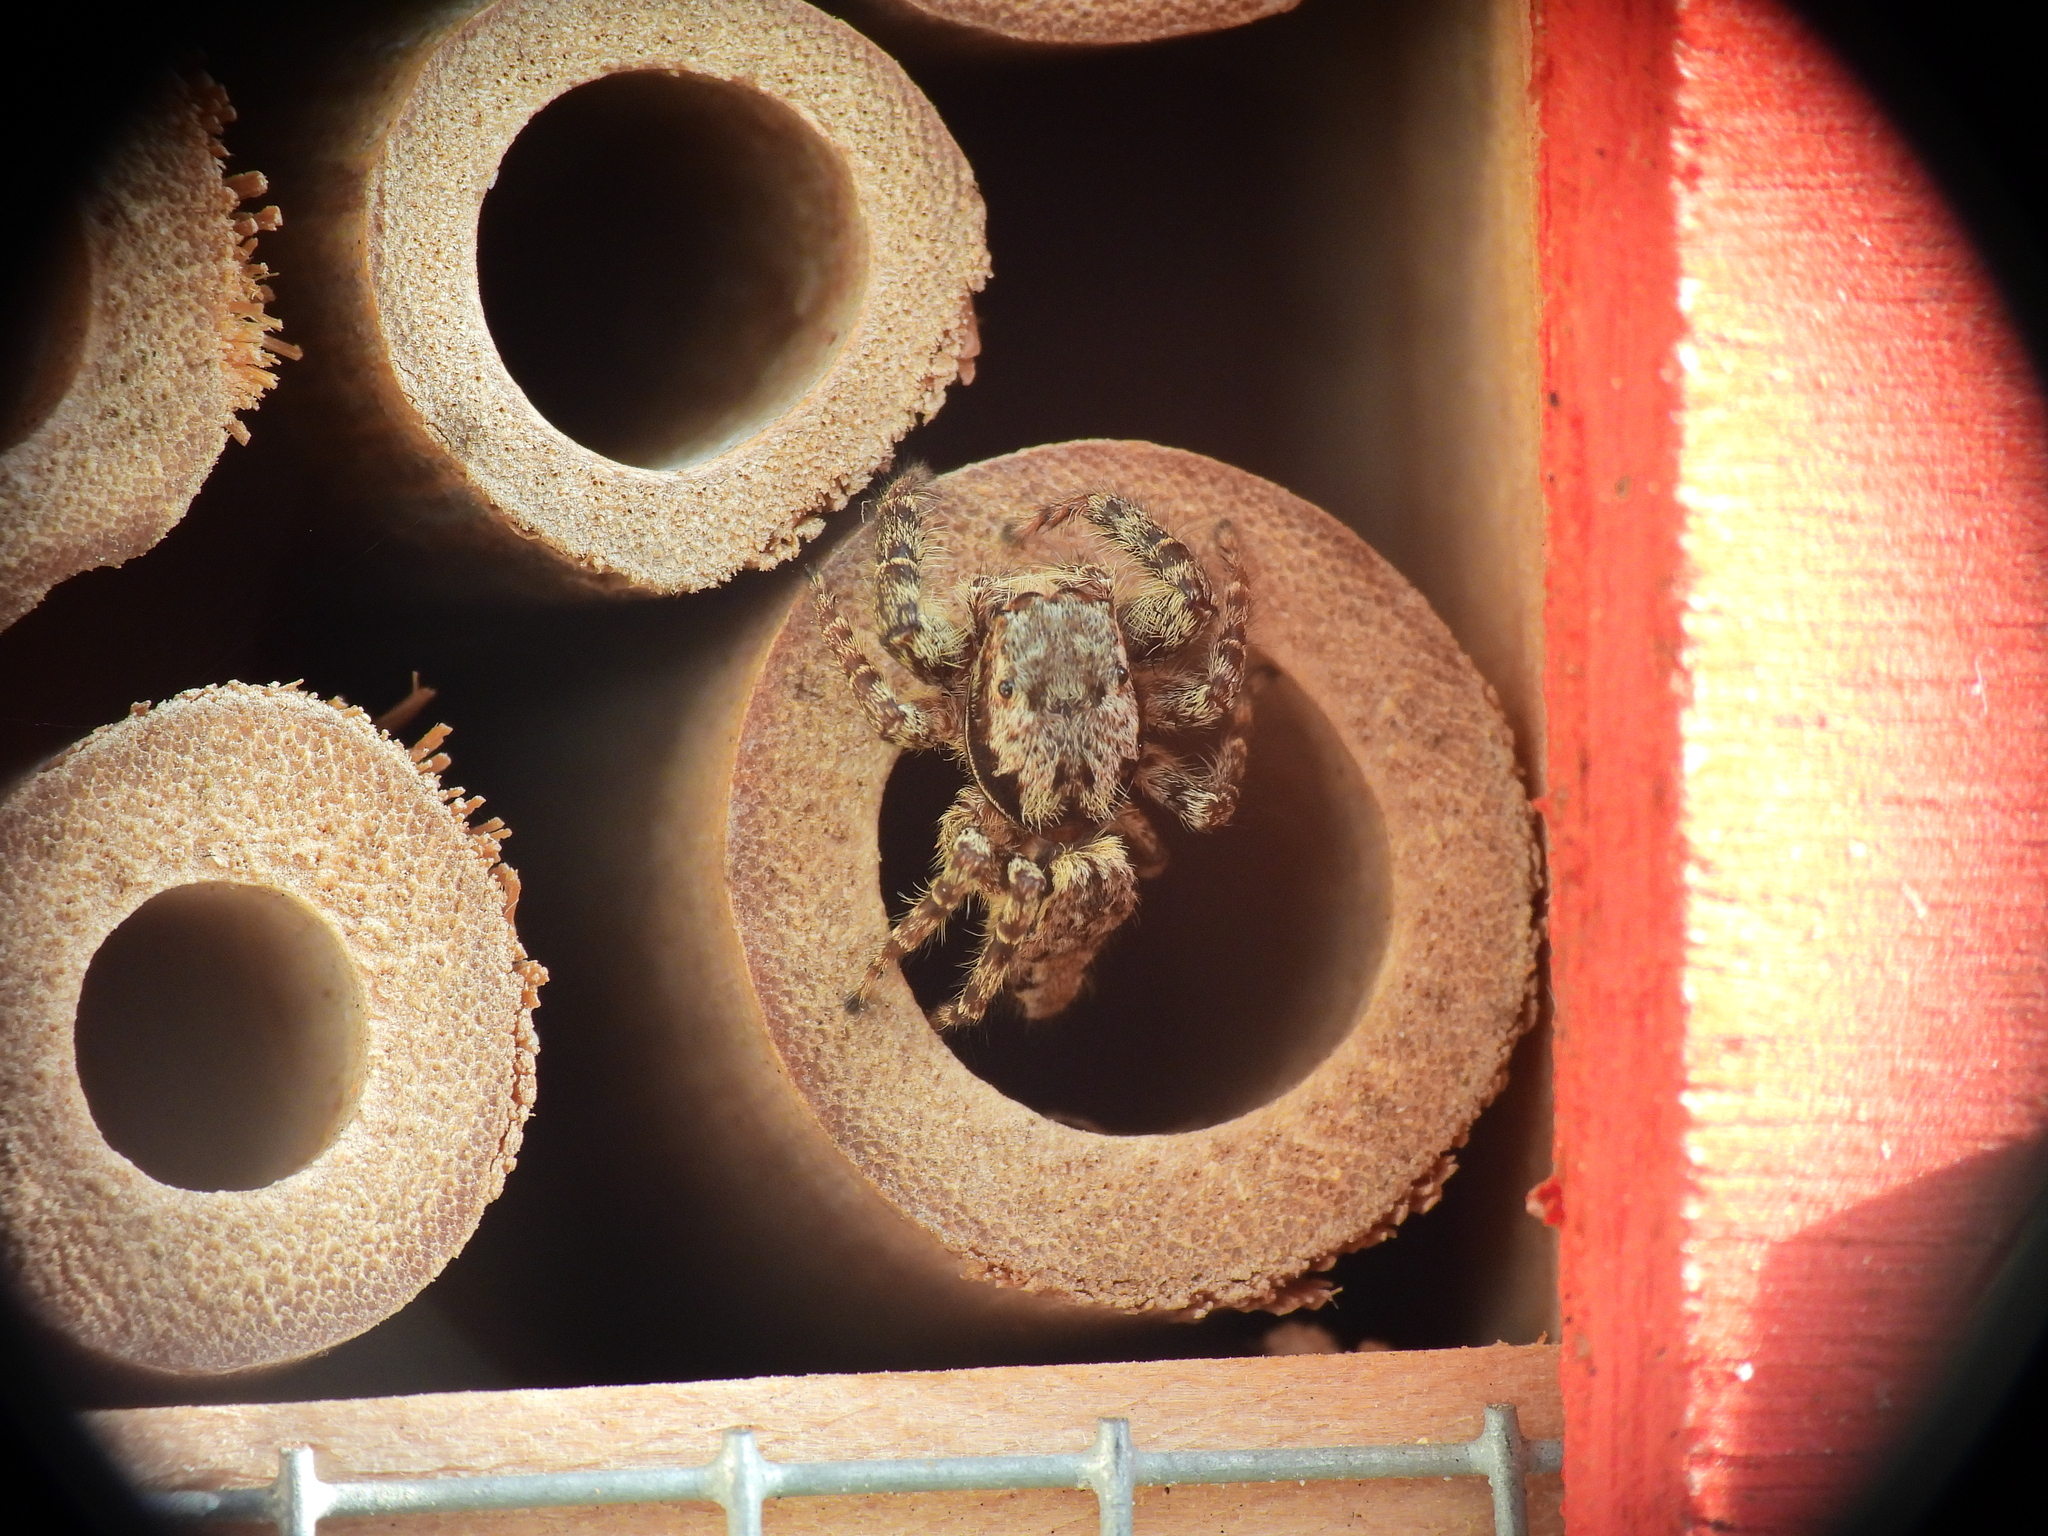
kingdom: Animalia
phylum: Arthropoda
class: Arachnida
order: Araneae
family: Salticidae
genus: Marpissa
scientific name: Marpissa muscosa
